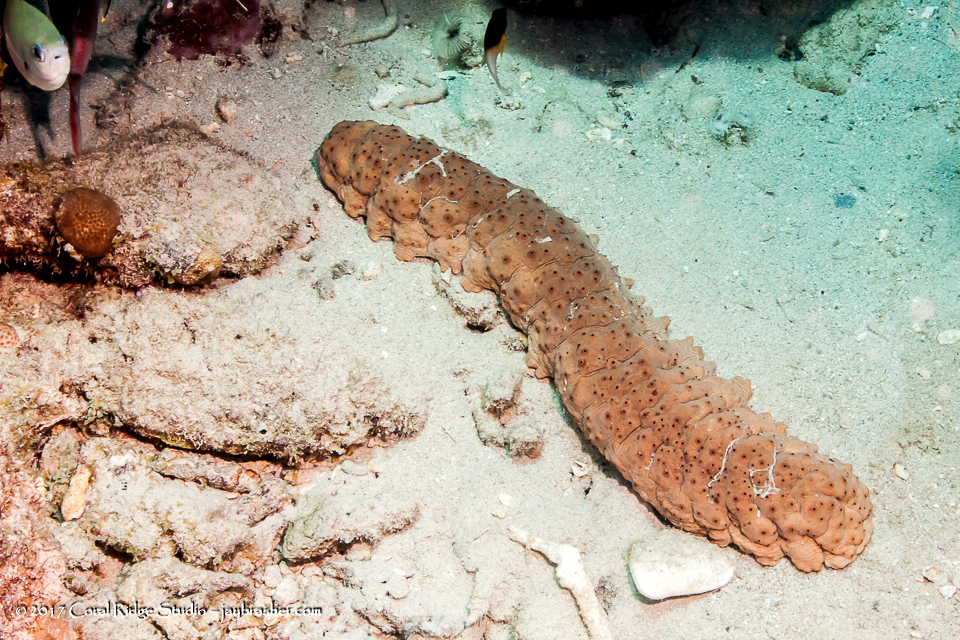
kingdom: Animalia
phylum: Echinodermata
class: Holothuroidea
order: Synallactida
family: Stichopodidae
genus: Isostichopus
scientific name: Isostichopus badionotus
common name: Chocolate chip cucumber
